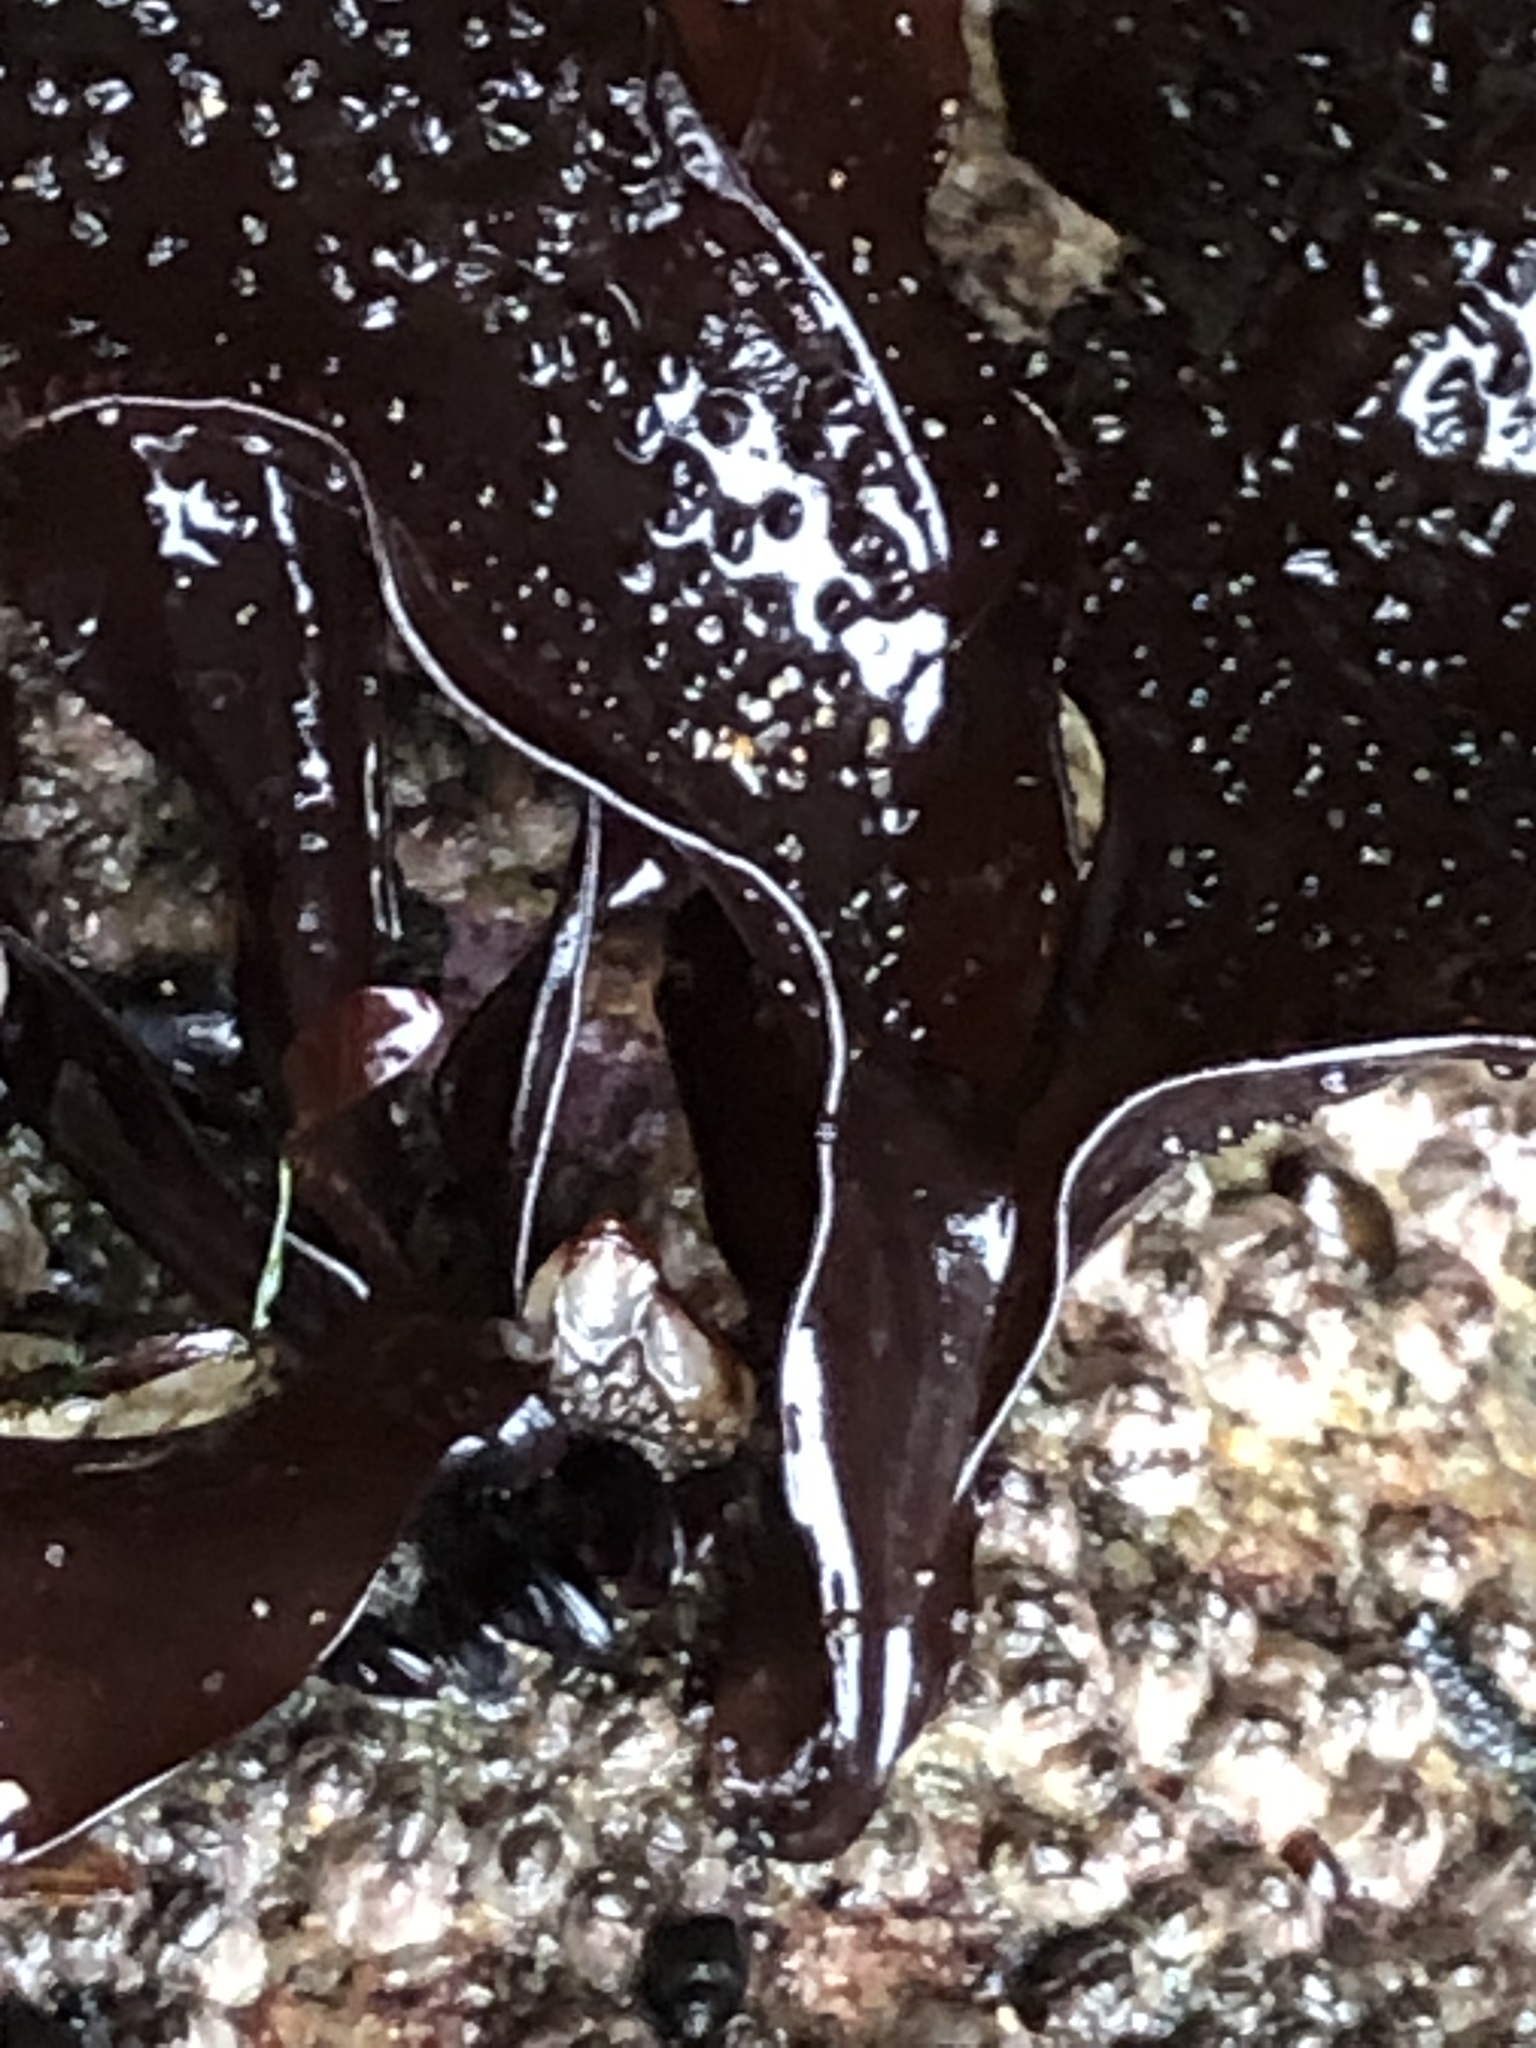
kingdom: Plantae
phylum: Rhodophyta
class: Florideophyceae
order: Gigartinales
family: Phyllophoraceae
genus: Mastocarpus
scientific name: Mastocarpus papillatus
